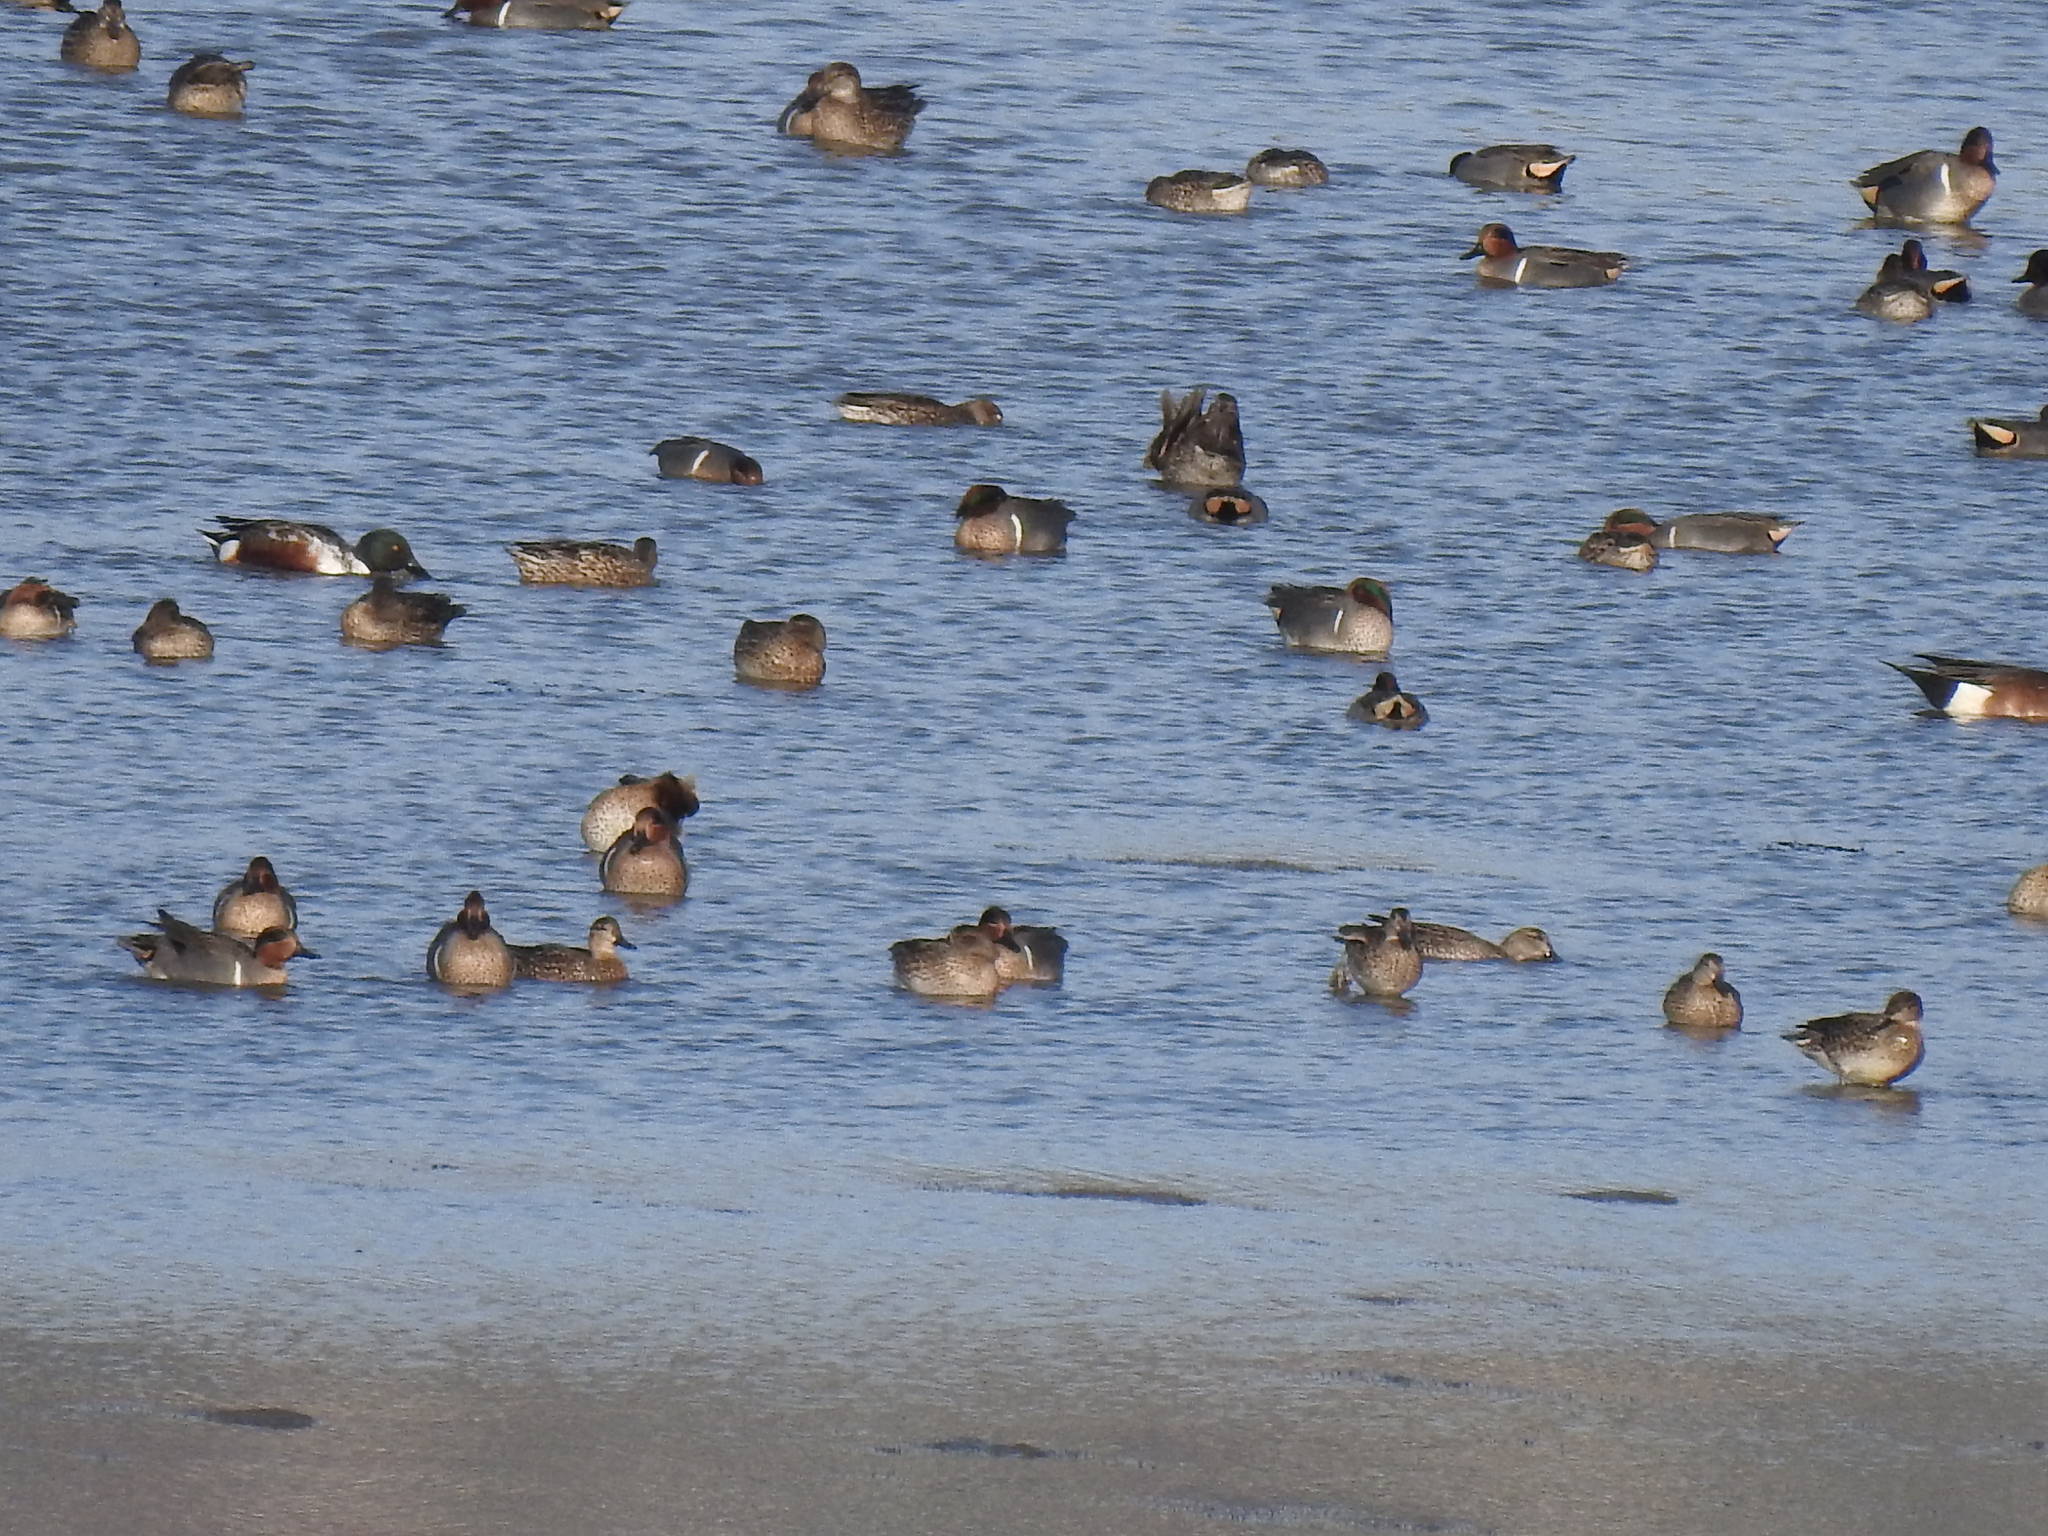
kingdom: Animalia
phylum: Chordata
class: Aves
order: Anseriformes
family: Anatidae
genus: Anas
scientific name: Anas crecca
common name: Eurasian teal
